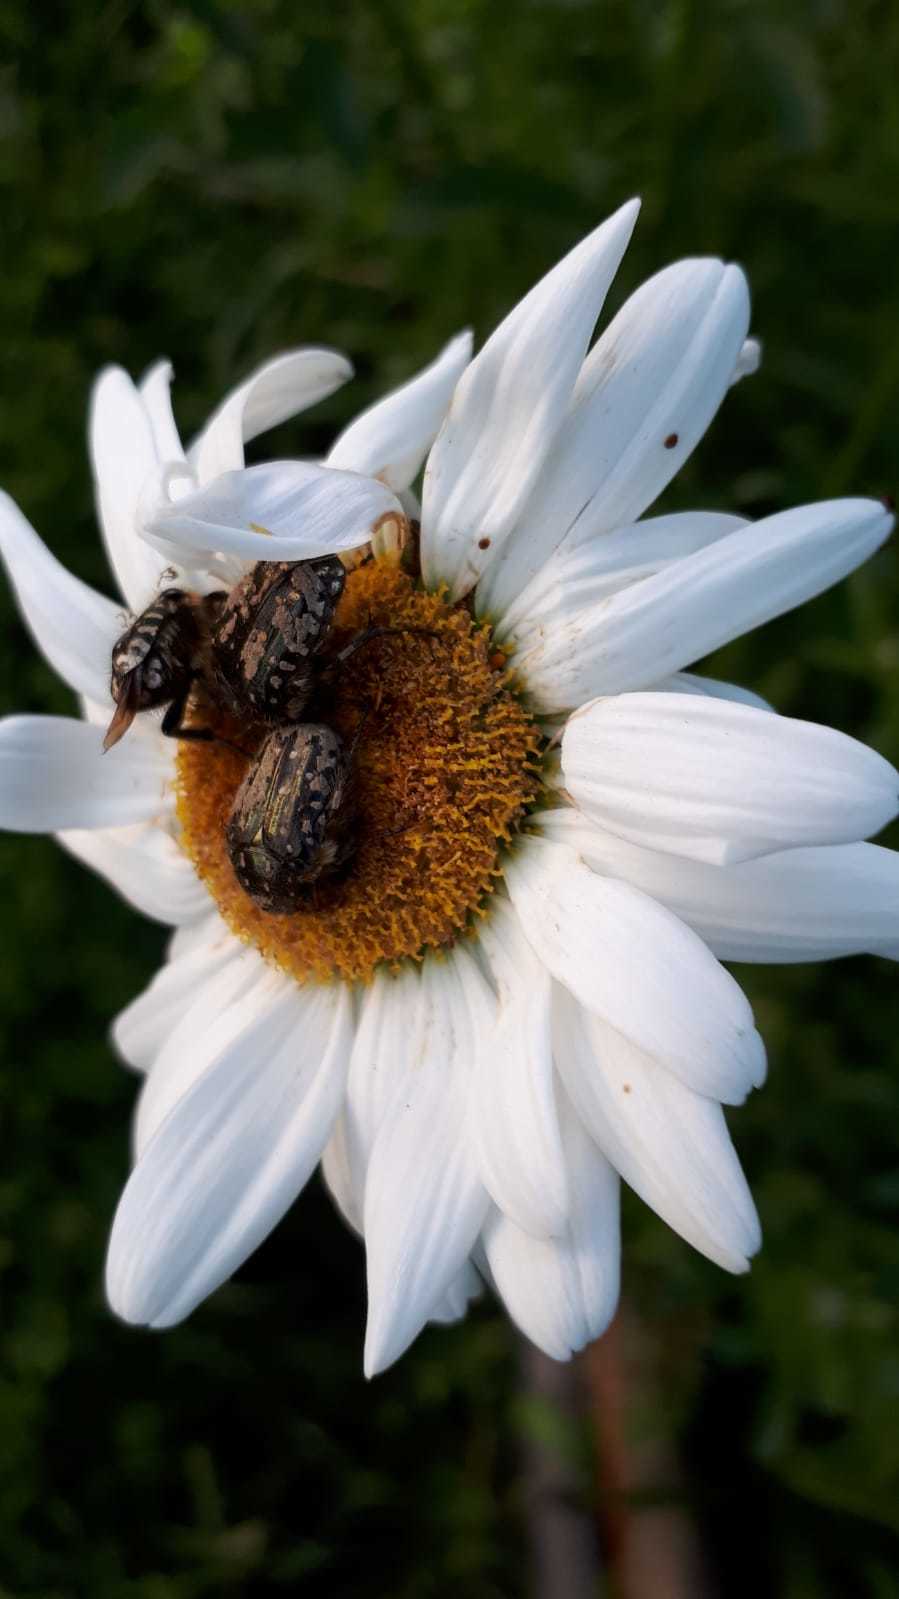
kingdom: Animalia
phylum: Arthropoda
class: Insecta
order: Coleoptera
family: Scarabaeidae
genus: Oxythyrea
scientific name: Oxythyrea funesta
